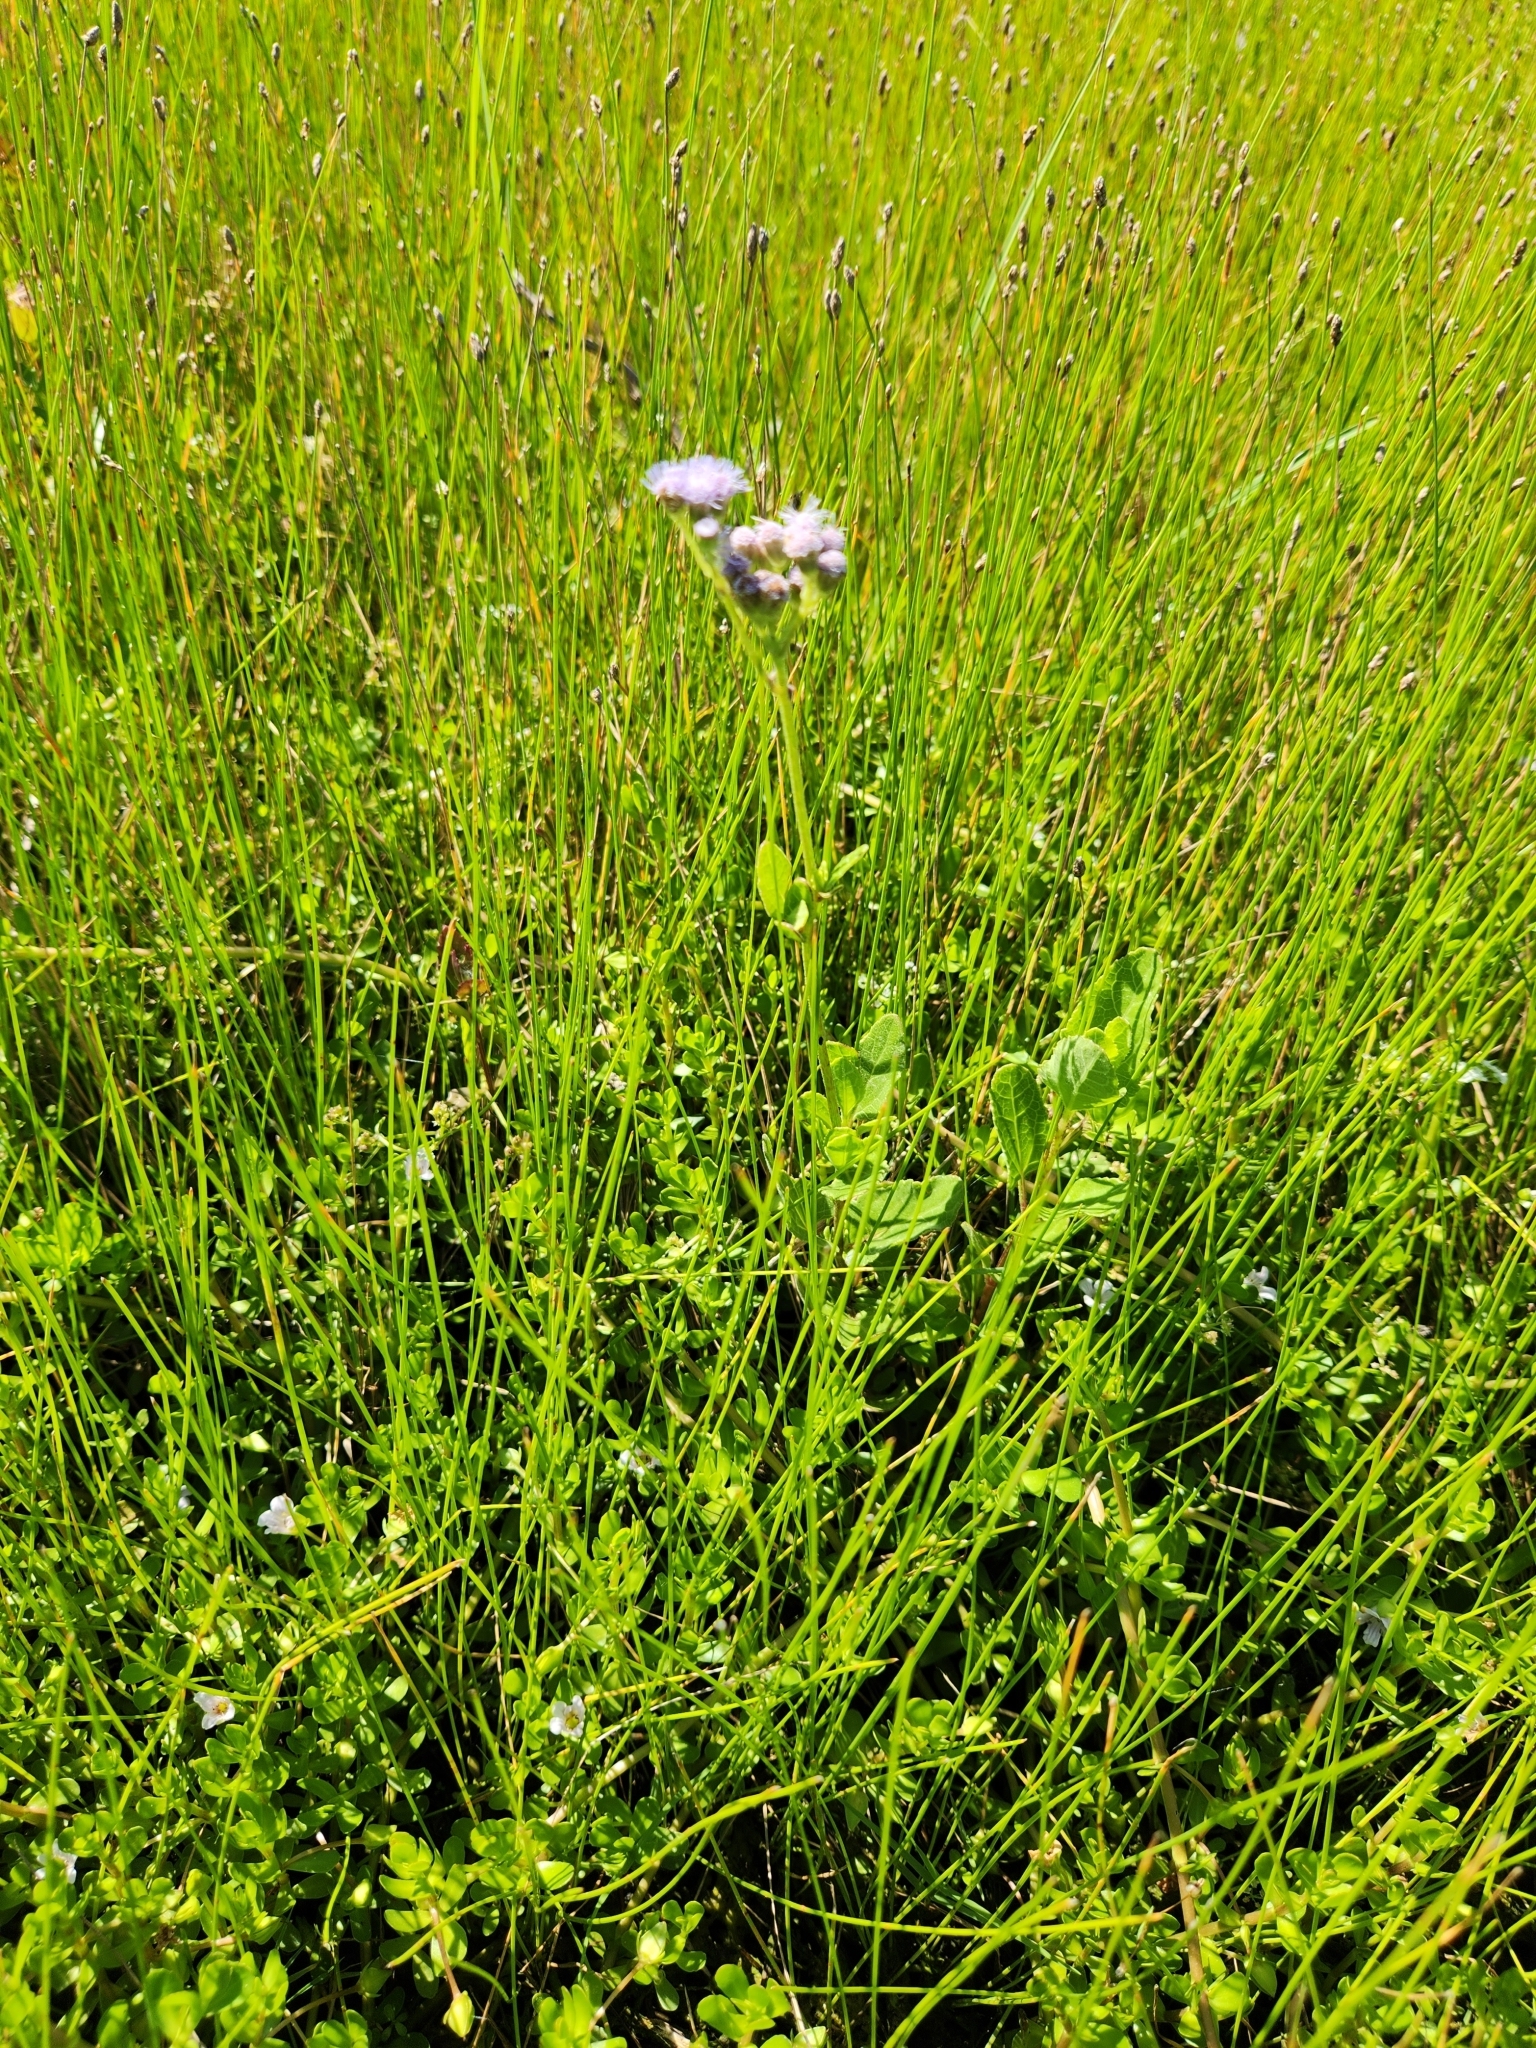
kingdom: Plantae
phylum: Tracheophyta
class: Magnoliopsida
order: Asterales
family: Asteraceae
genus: Conoclinium
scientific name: Conoclinium betonicifolium
